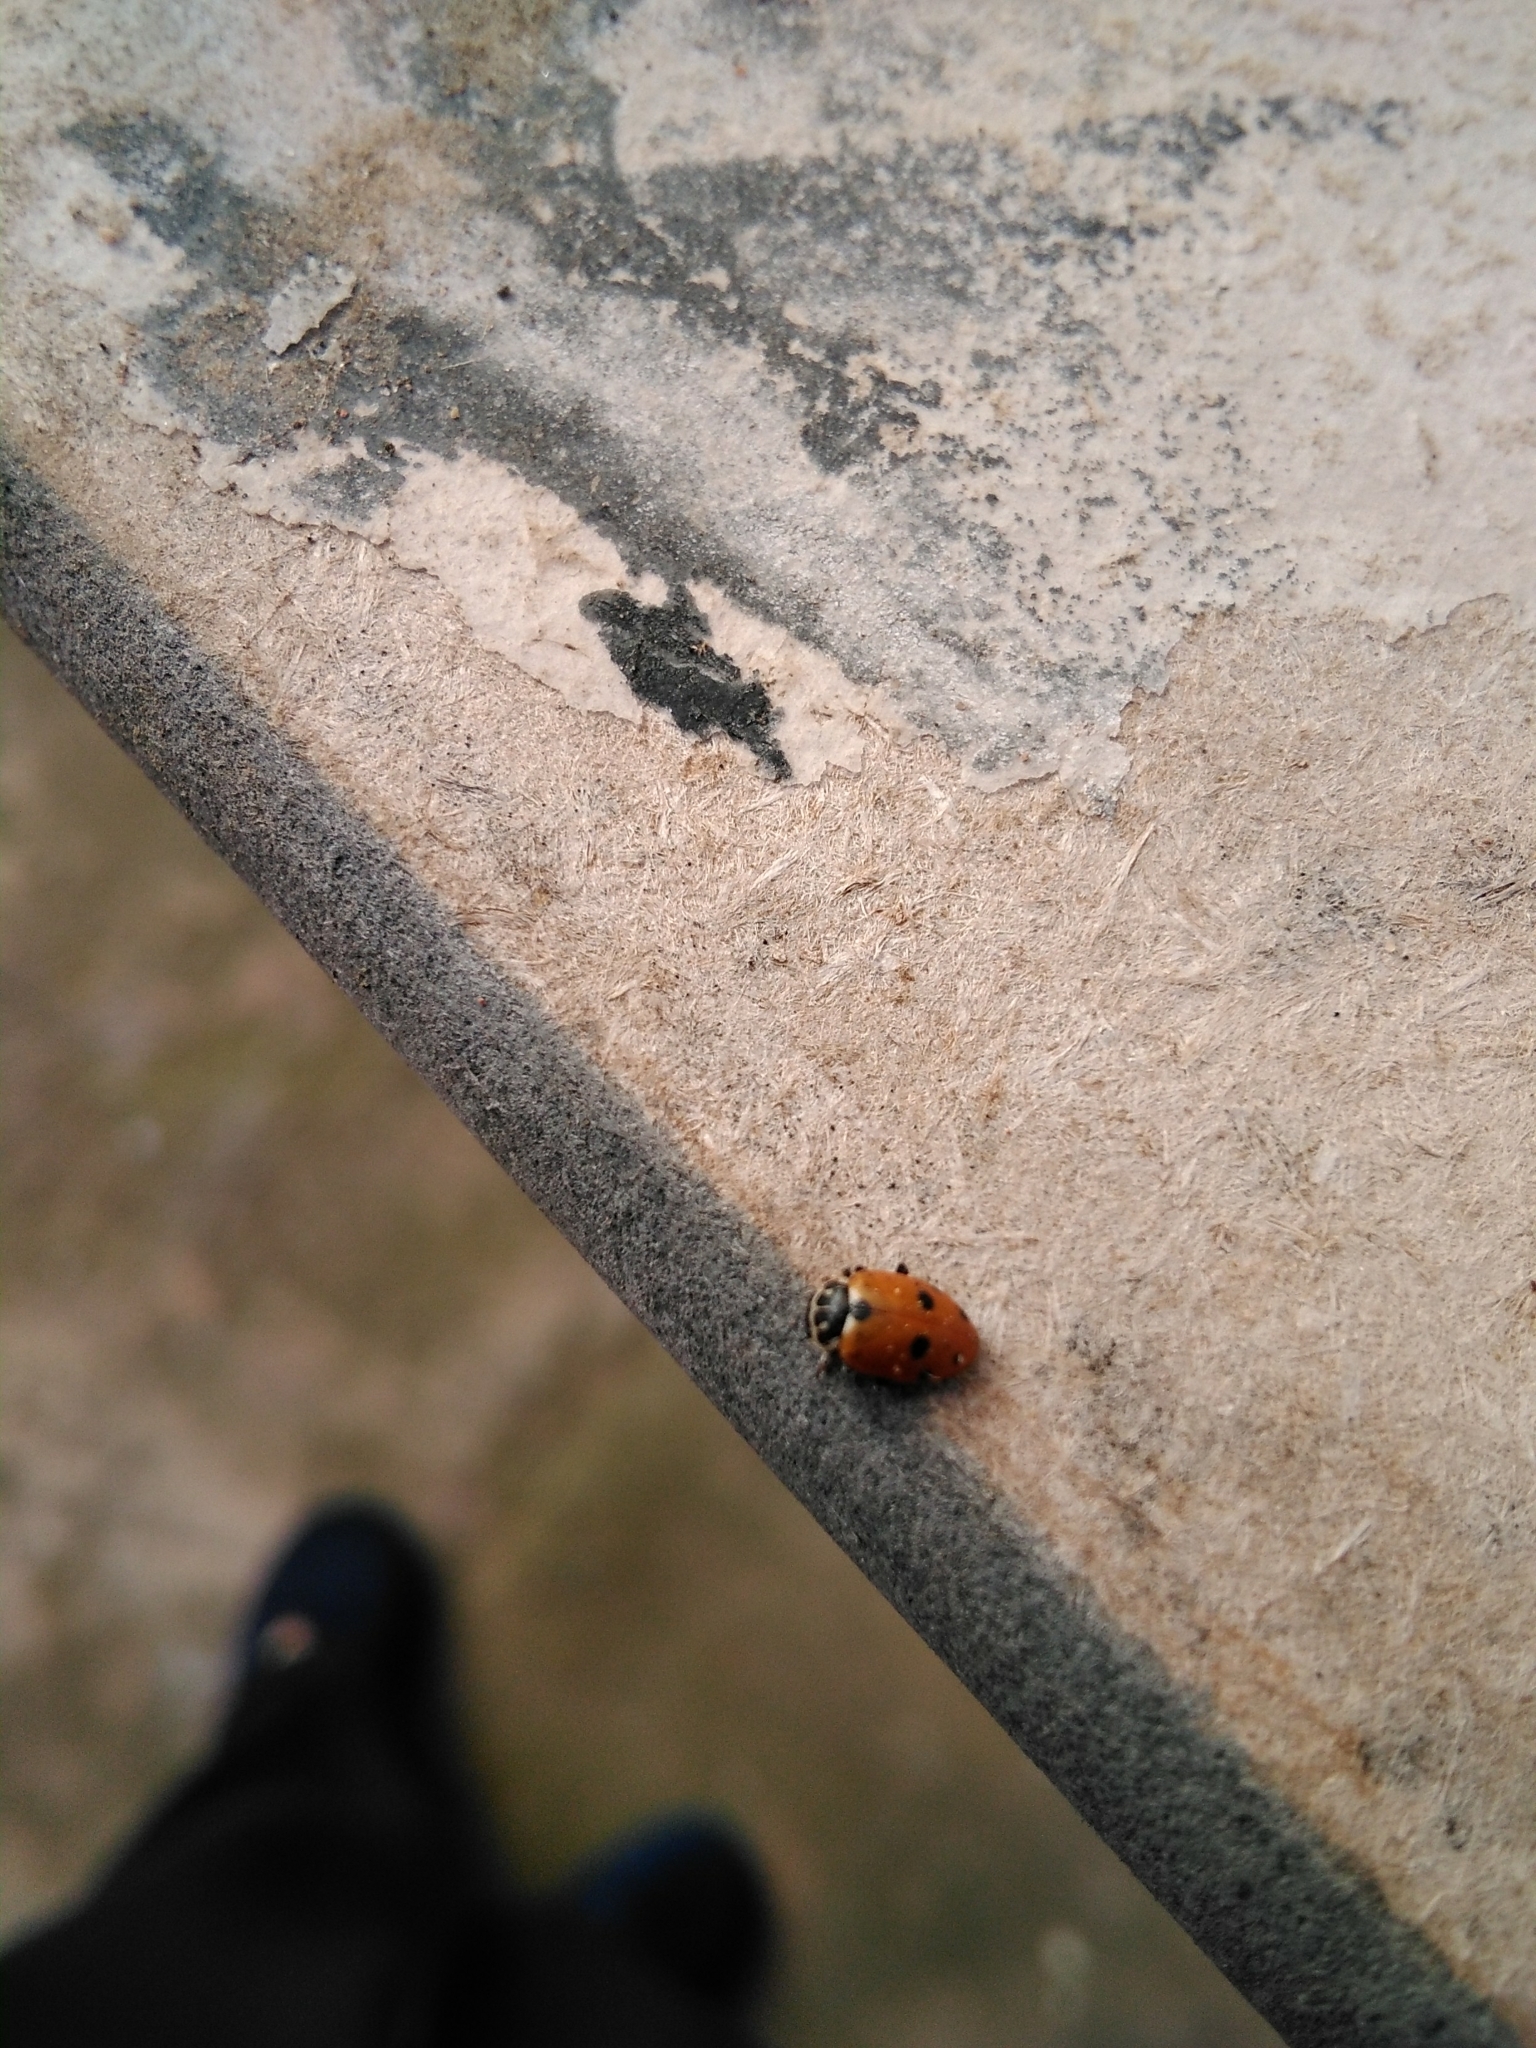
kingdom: Animalia
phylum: Arthropoda
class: Insecta
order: Coleoptera
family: Coccinellidae
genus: Hippodamia
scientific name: Hippodamia variegata
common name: Ladybird beetle
